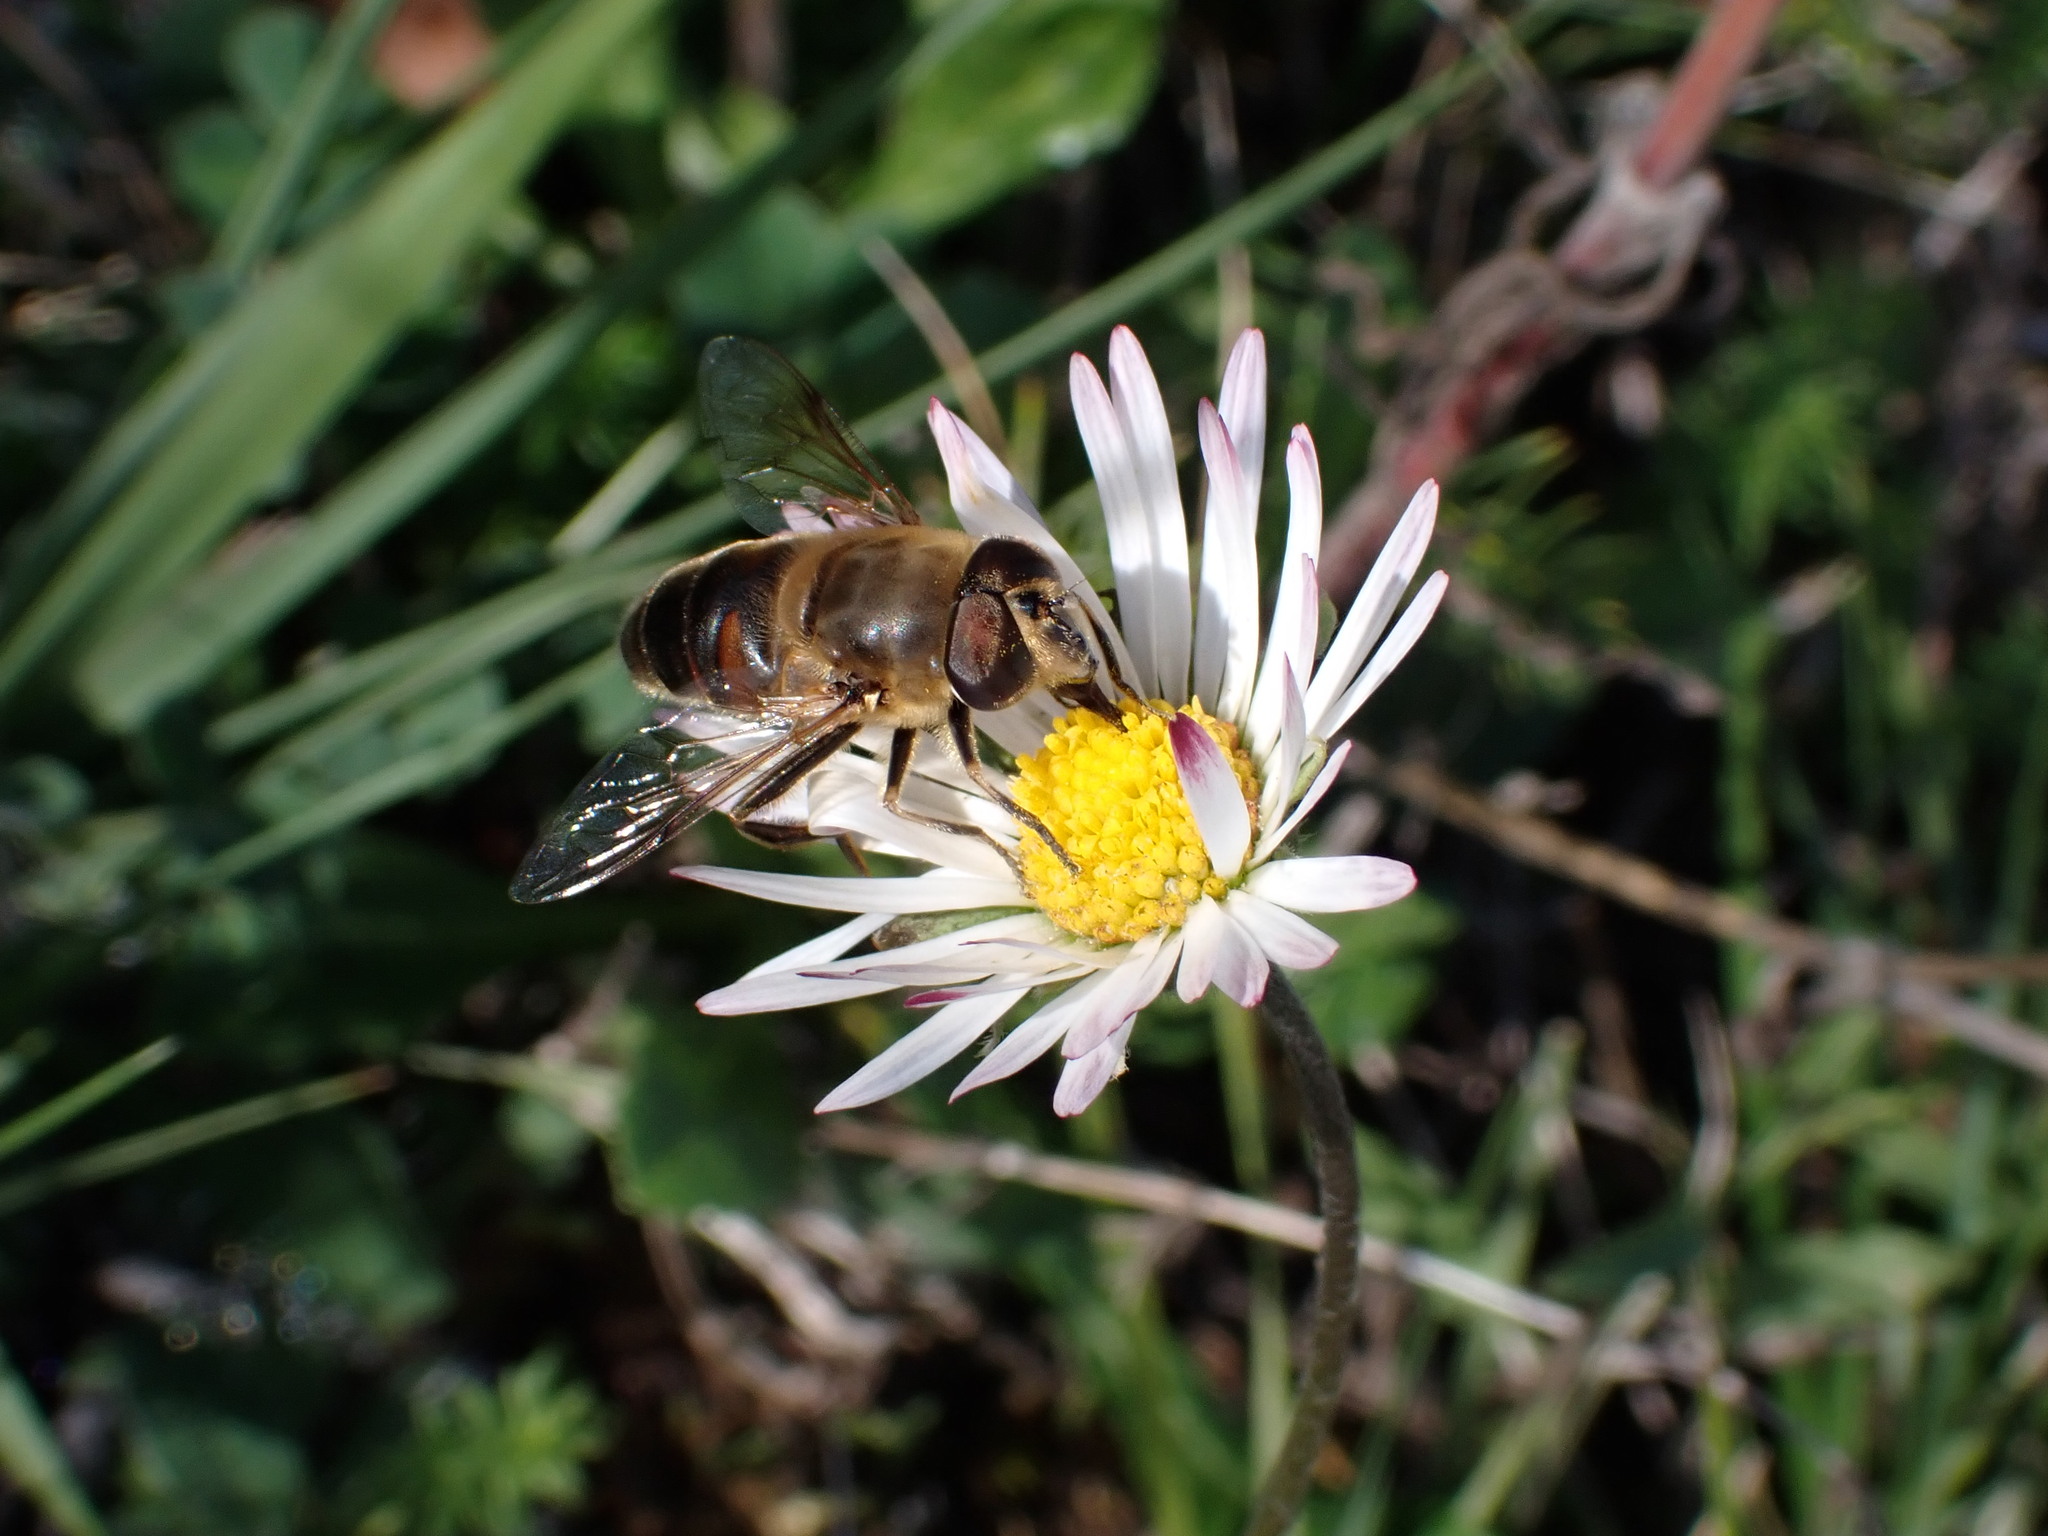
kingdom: Animalia
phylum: Arthropoda
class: Insecta
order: Diptera
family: Syrphidae
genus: Eristalis
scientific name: Eristalis tenax
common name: Drone fly
